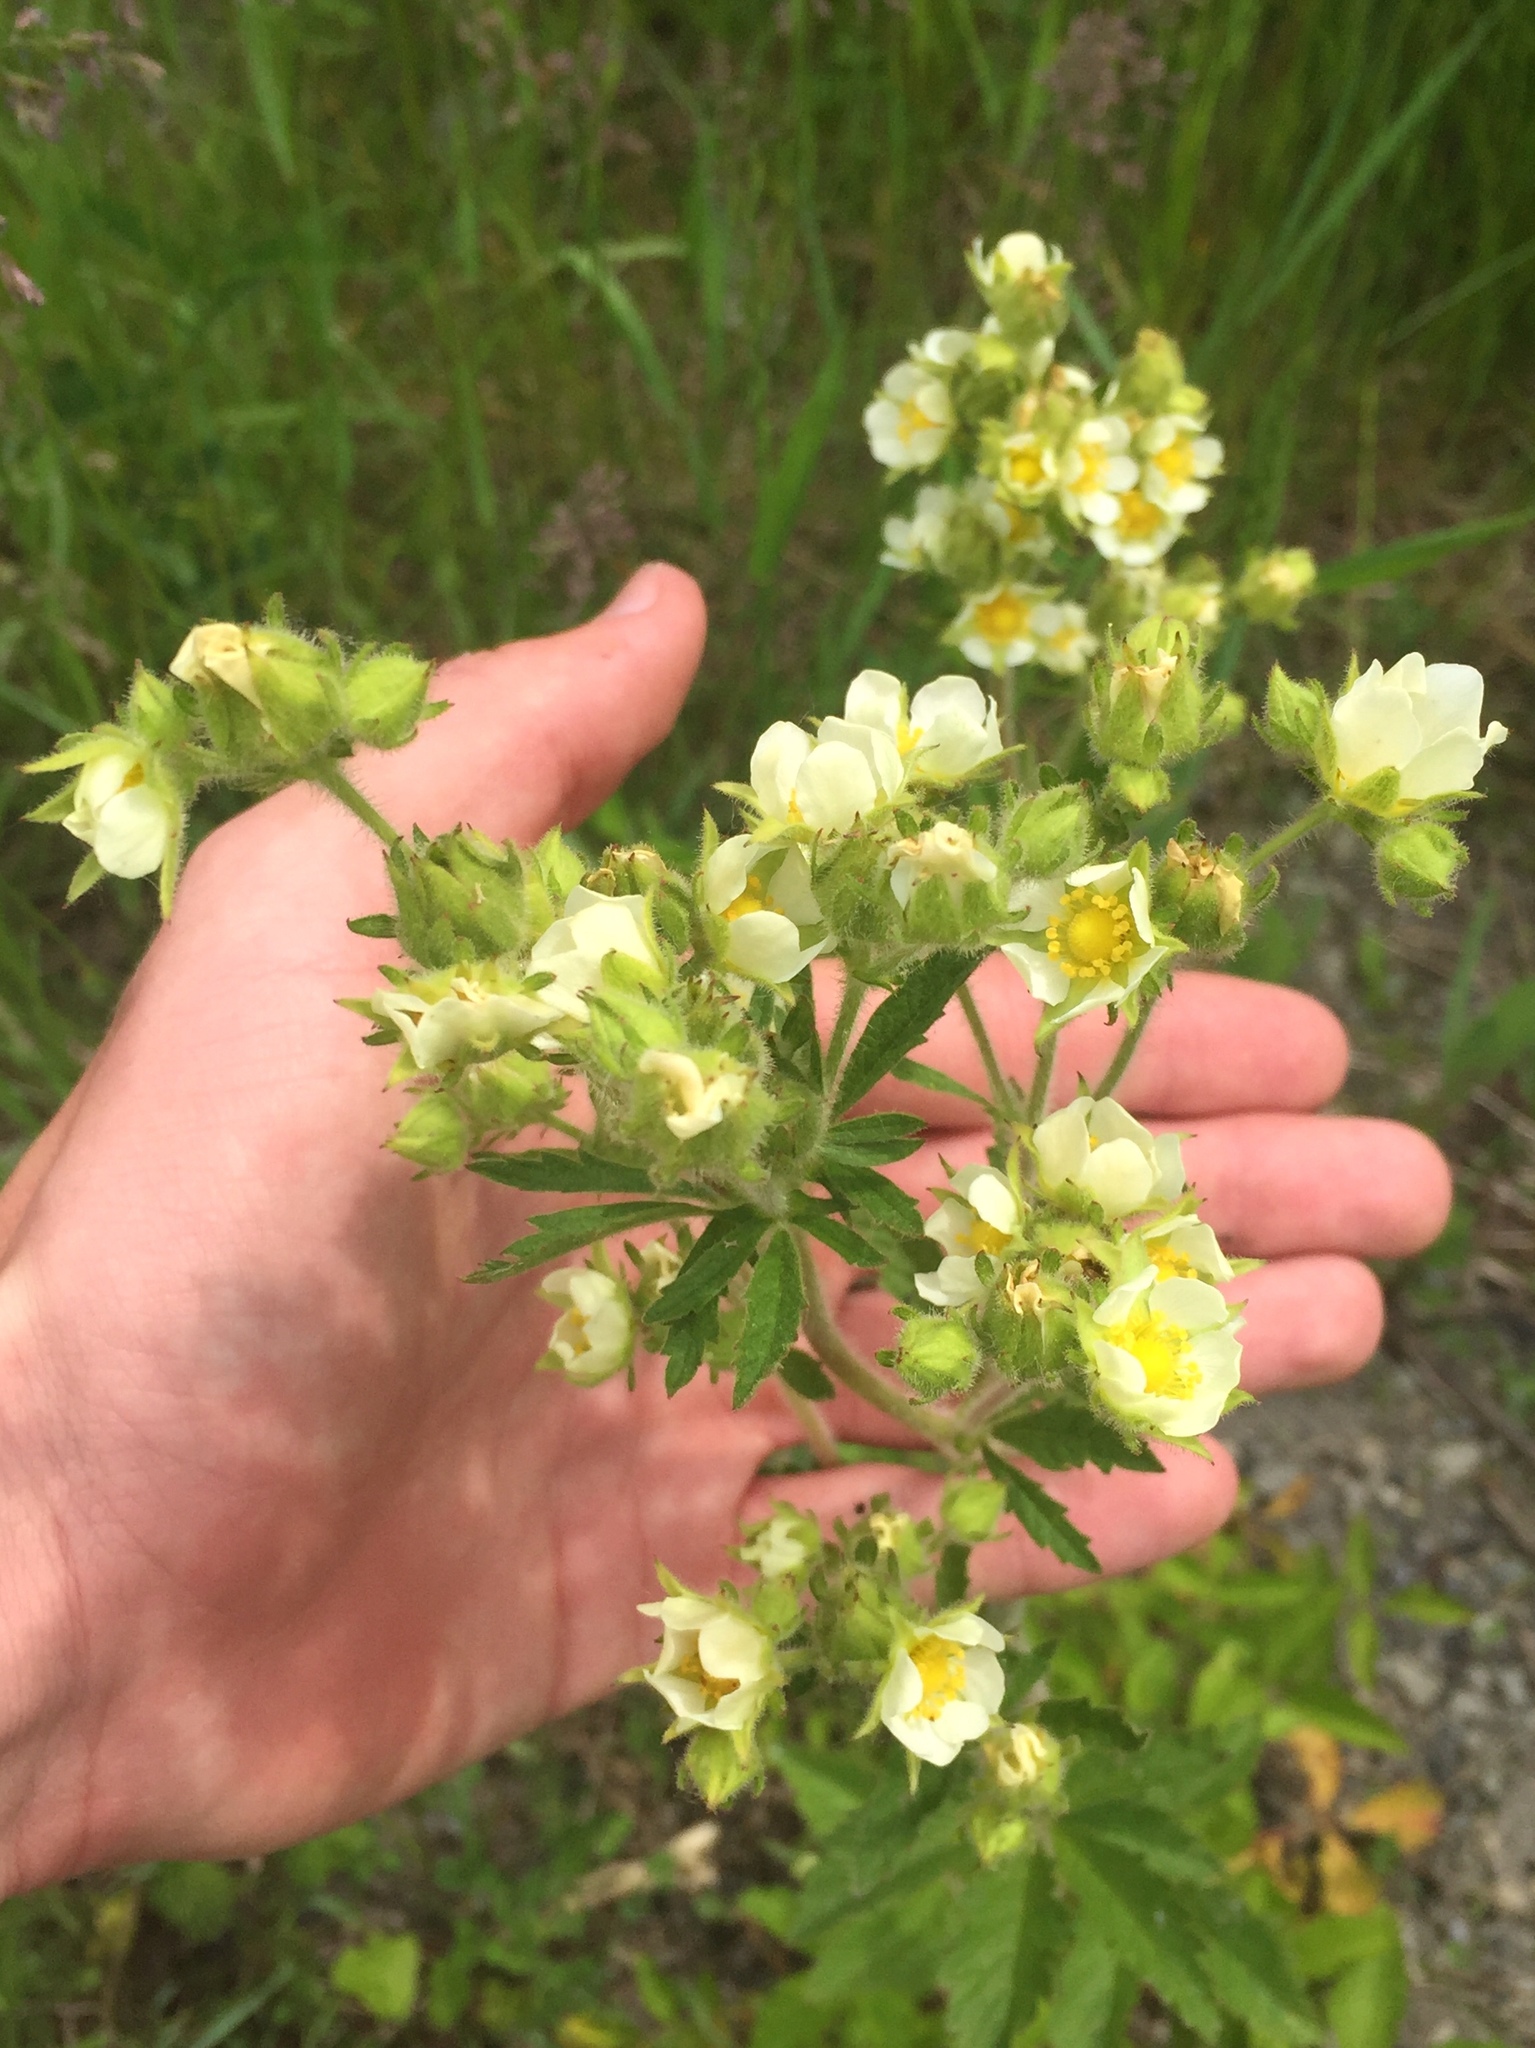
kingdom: Plantae
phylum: Tracheophyta
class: Magnoliopsida
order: Rosales
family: Rosaceae
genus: Drymocallis
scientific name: Drymocallis arguta
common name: Tall cinquefoil
